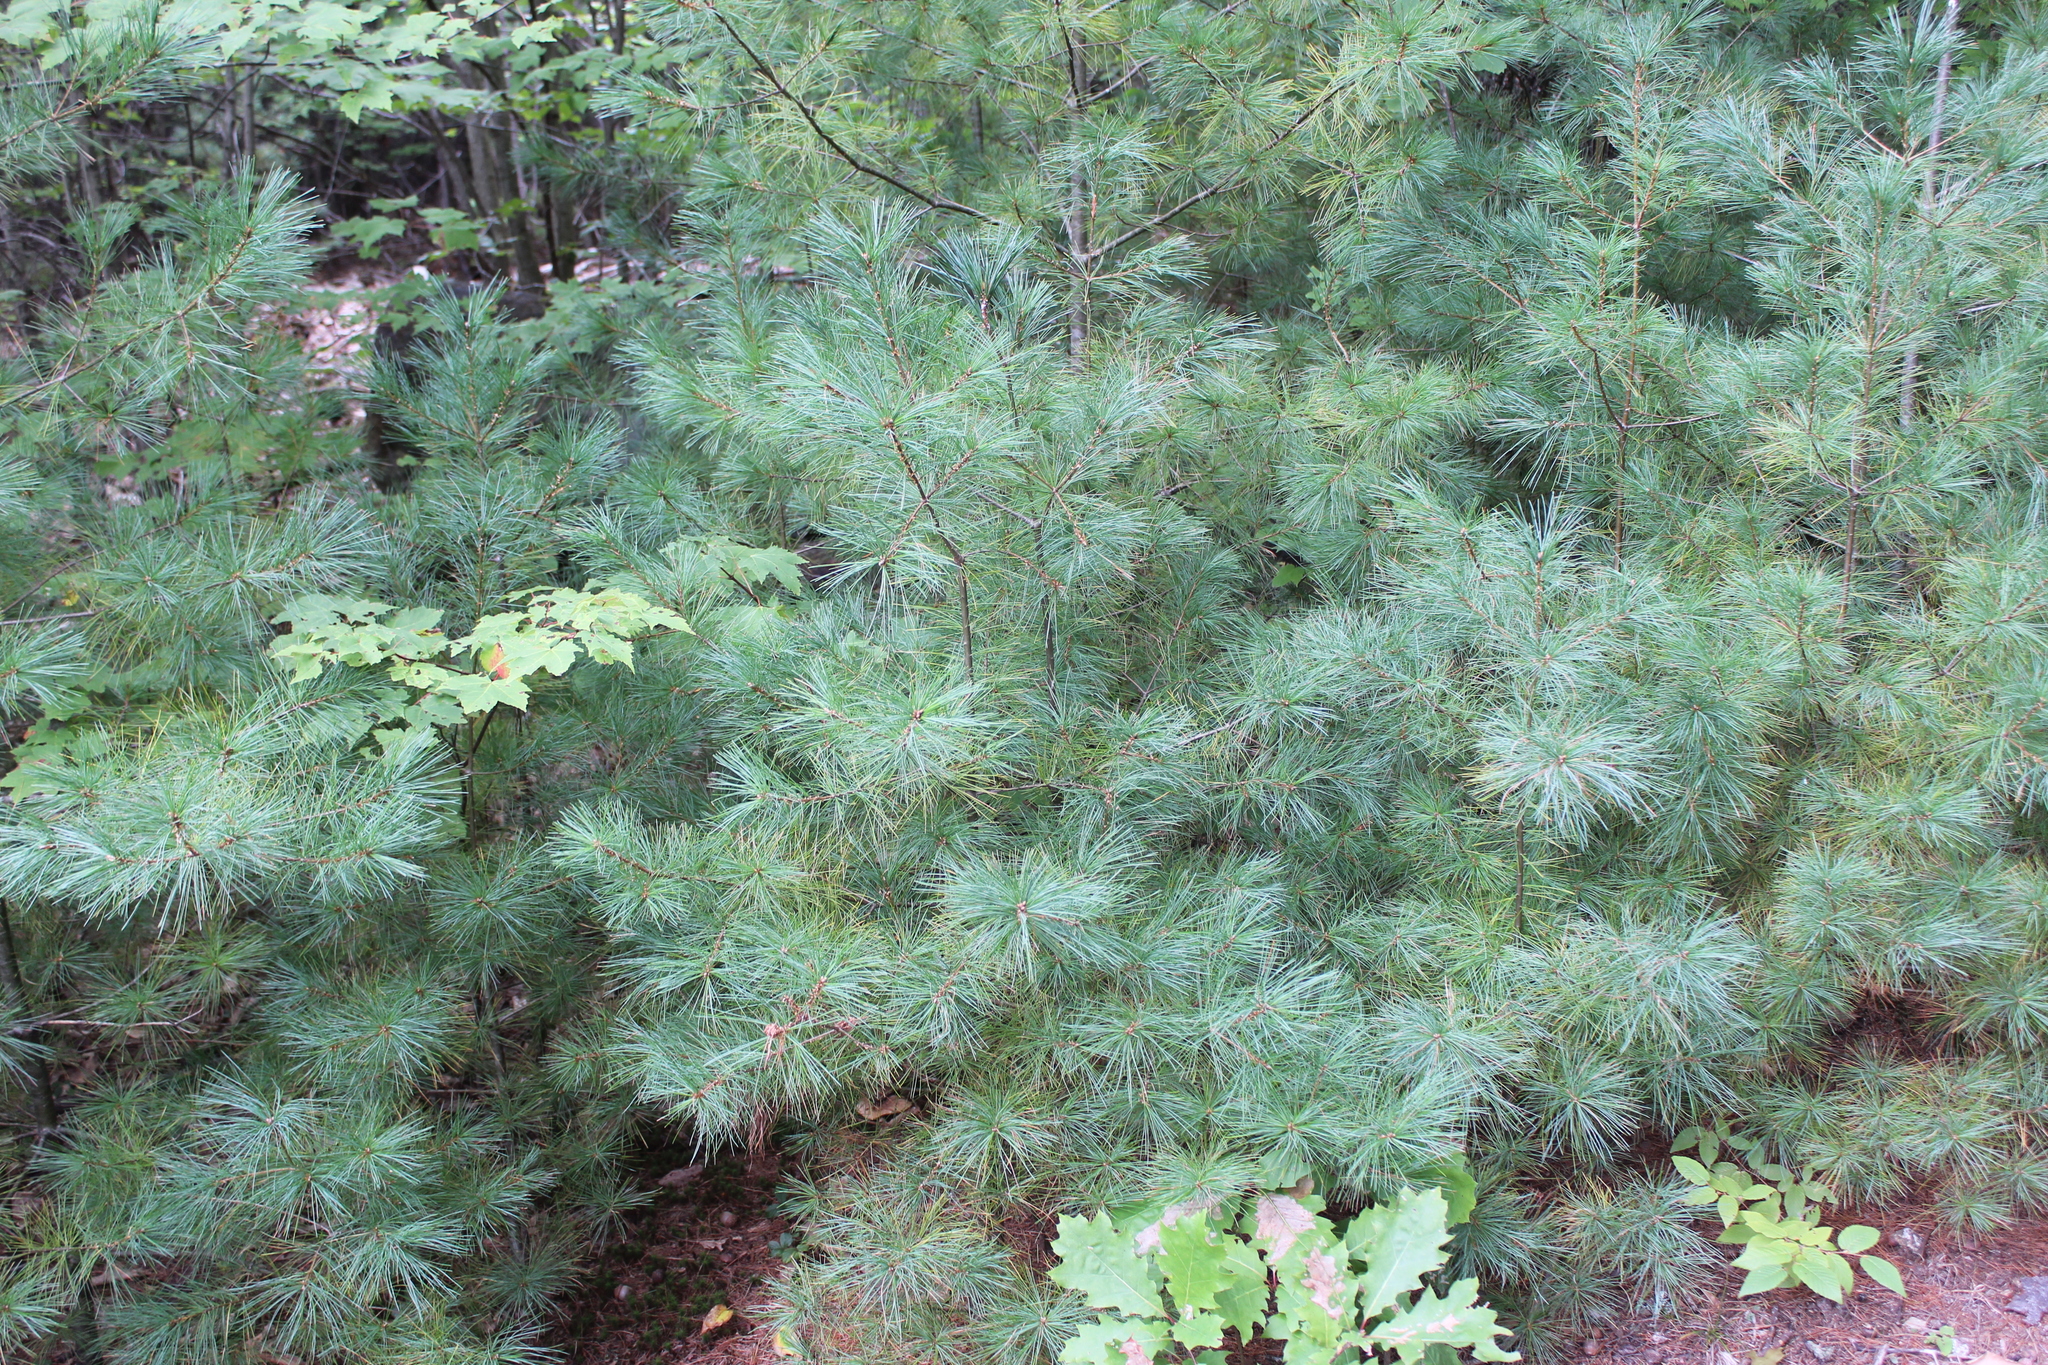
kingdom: Plantae
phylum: Tracheophyta
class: Pinopsida
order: Pinales
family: Pinaceae
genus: Pinus
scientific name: Pinus strobus
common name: Weymouth pine
